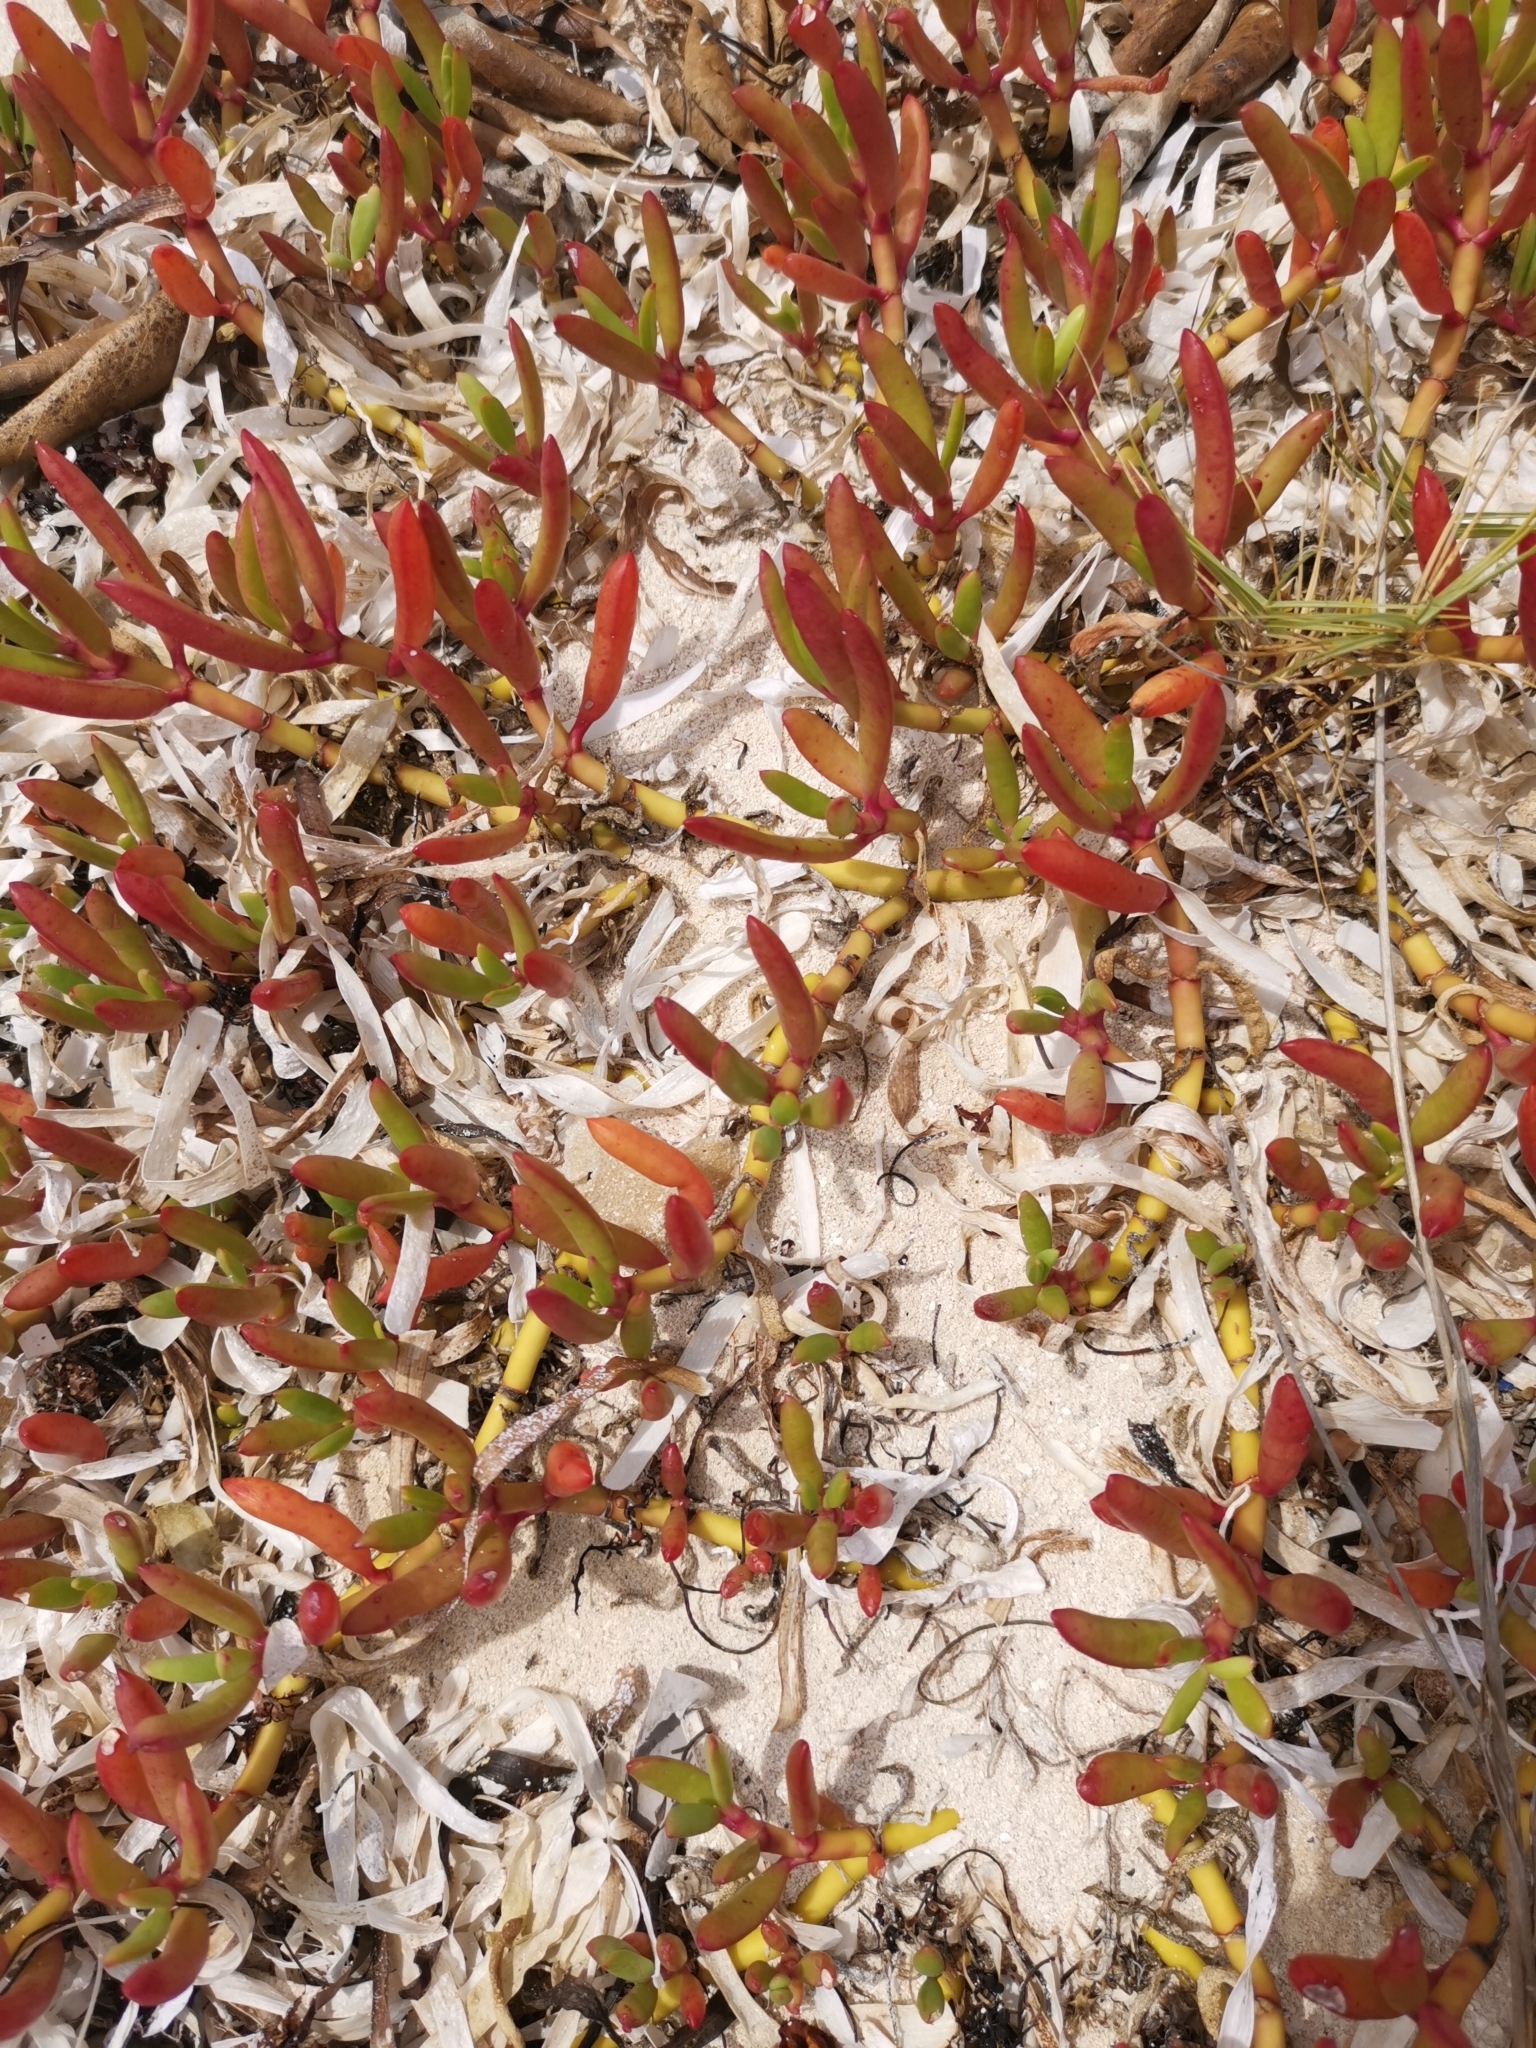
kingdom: Plantae
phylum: Tracheophyta
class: Magnoliopsida
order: Caryophyllales
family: Aizoaceae
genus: Sesuvium
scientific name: Sesuvium portulacastrum
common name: Sea-purslane
